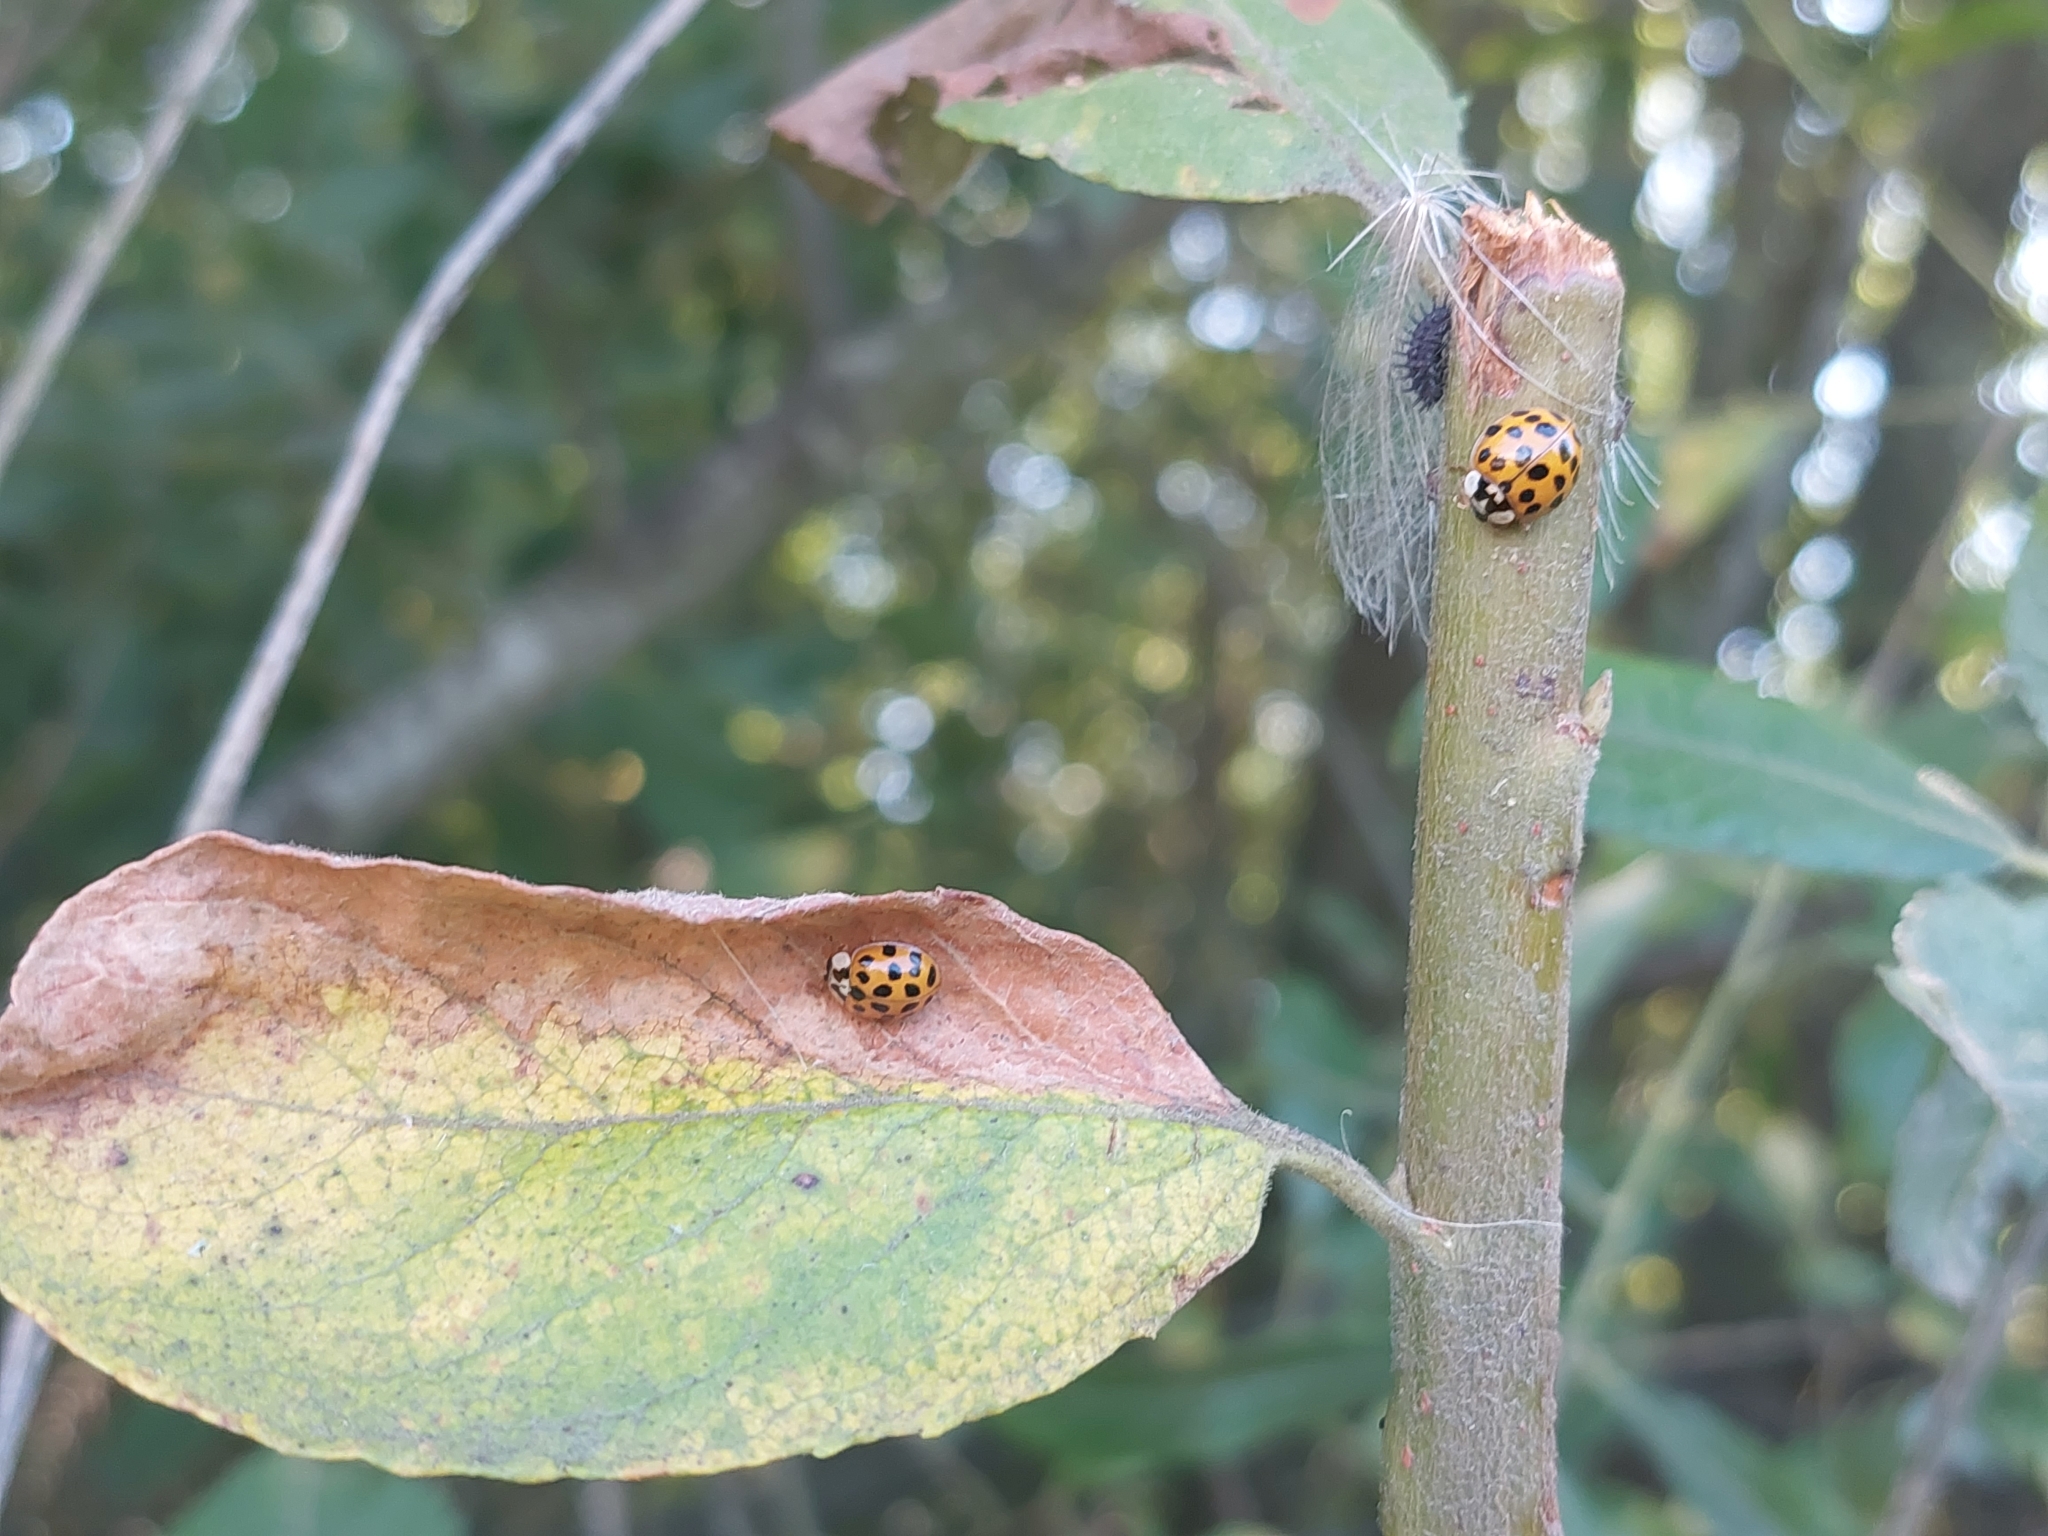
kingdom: Animalia
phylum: Arthropoda
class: Insecta
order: Coleoptera
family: Coccinellidae
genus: Harmonia
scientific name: Harmonia axyridis
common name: Harlequin ladybird
